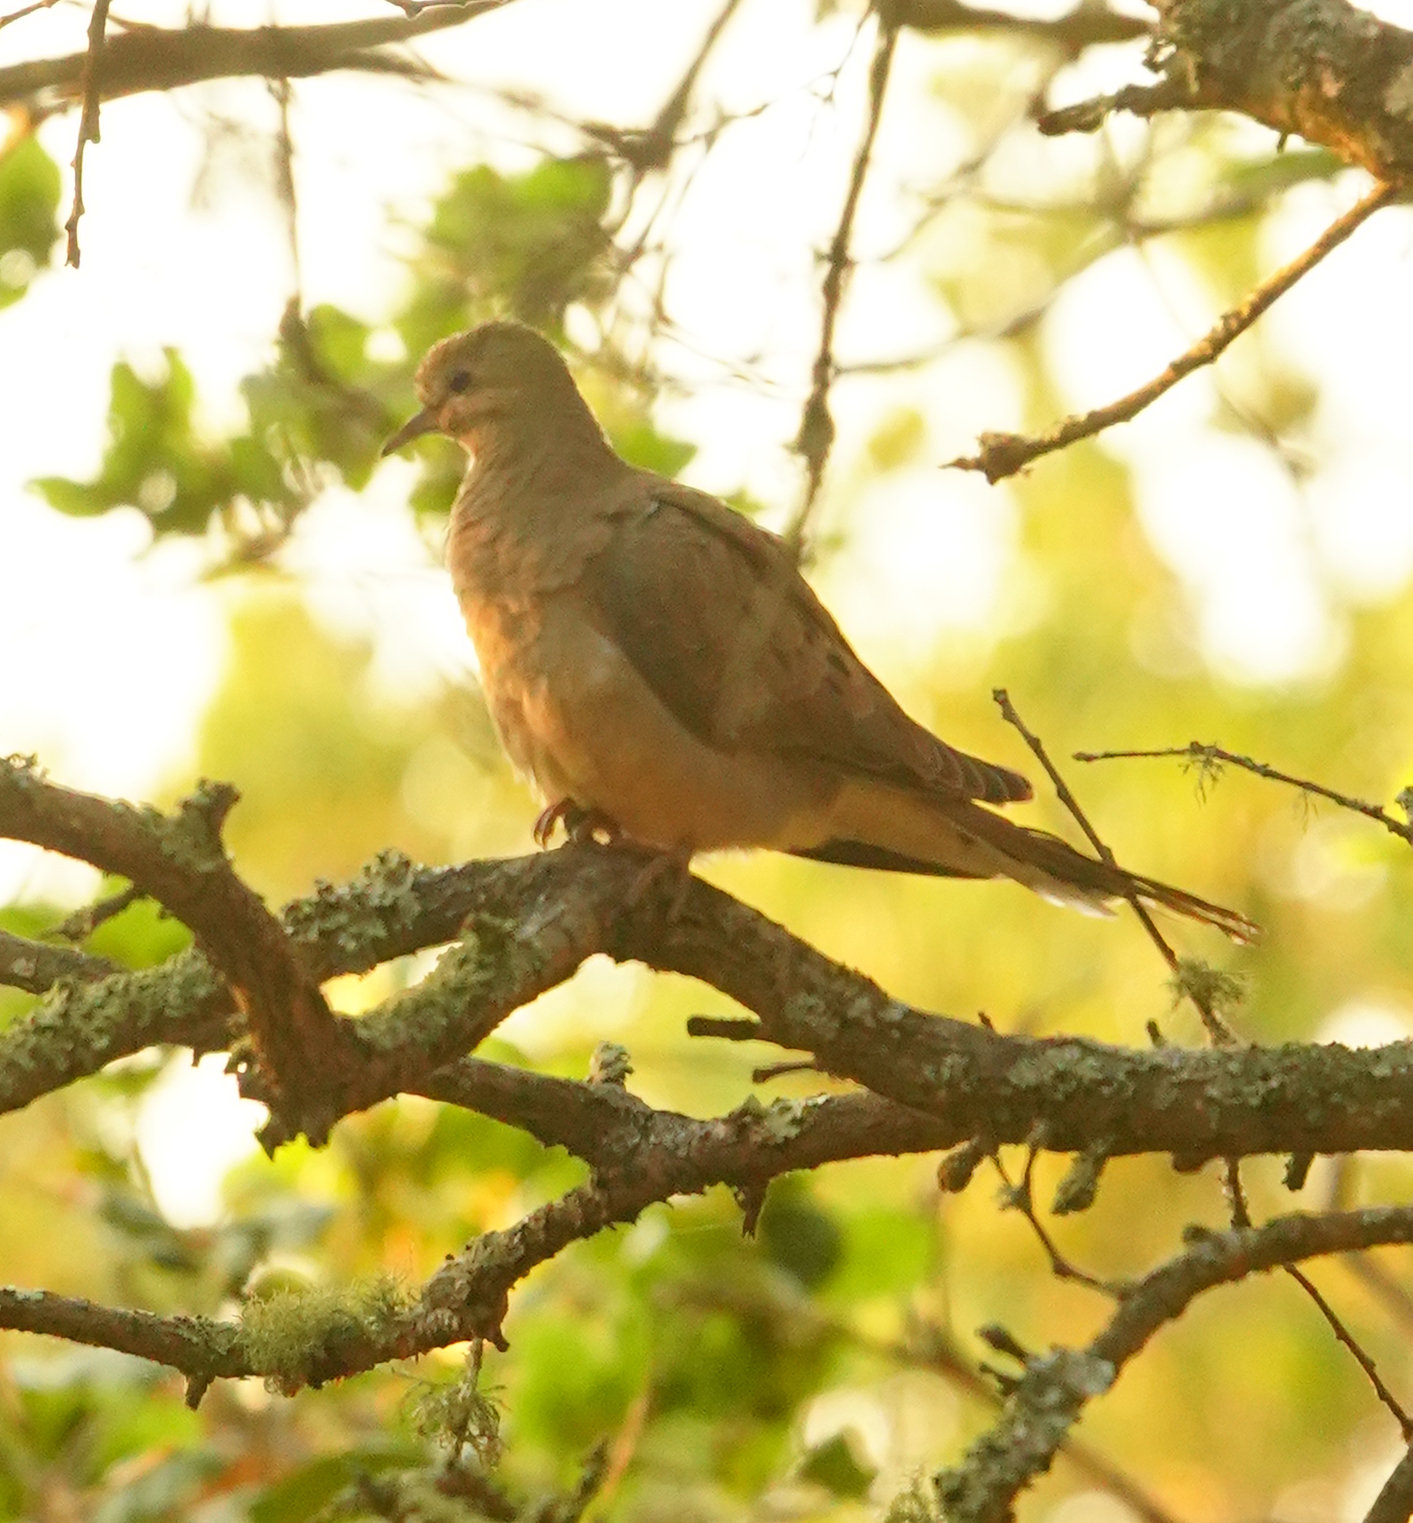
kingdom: Animalia
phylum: Chordata
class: Aves
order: Columbiformes
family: Columbidae
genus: Zenaida
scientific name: Zenaida macroura
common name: Mourning dove
